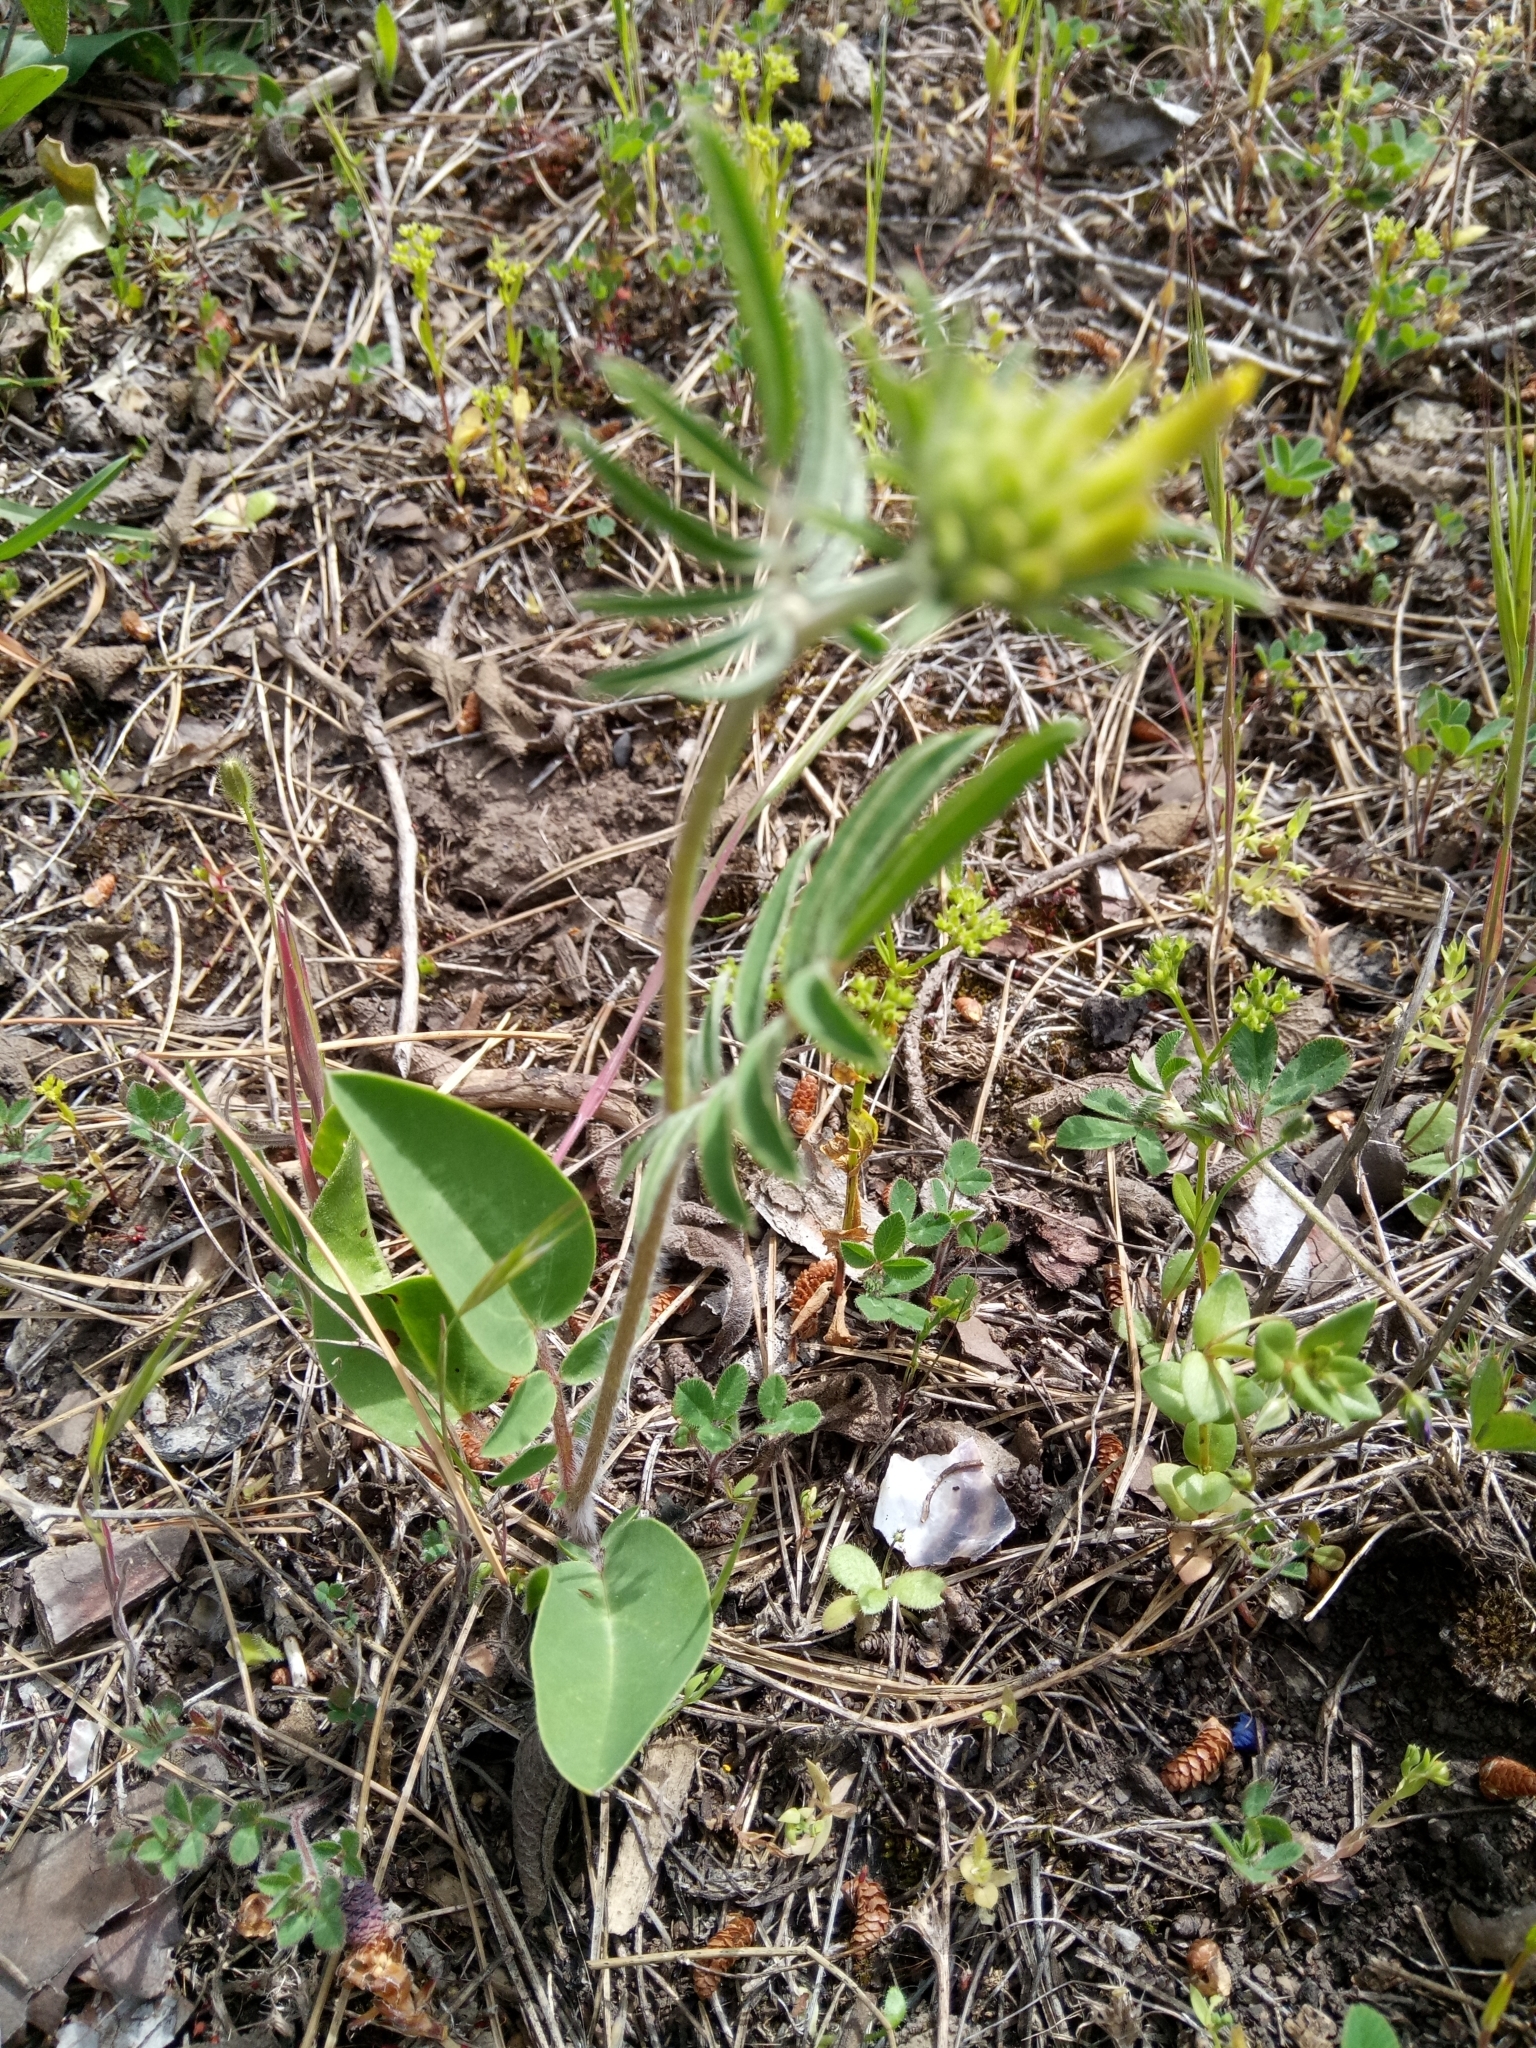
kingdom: Plantae
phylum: Tracheophyta
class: Magnoliopsida
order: Fabales
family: Fabaceae
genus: Anthyllis
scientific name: Anthyllis vulneraria
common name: Kidney vetch
